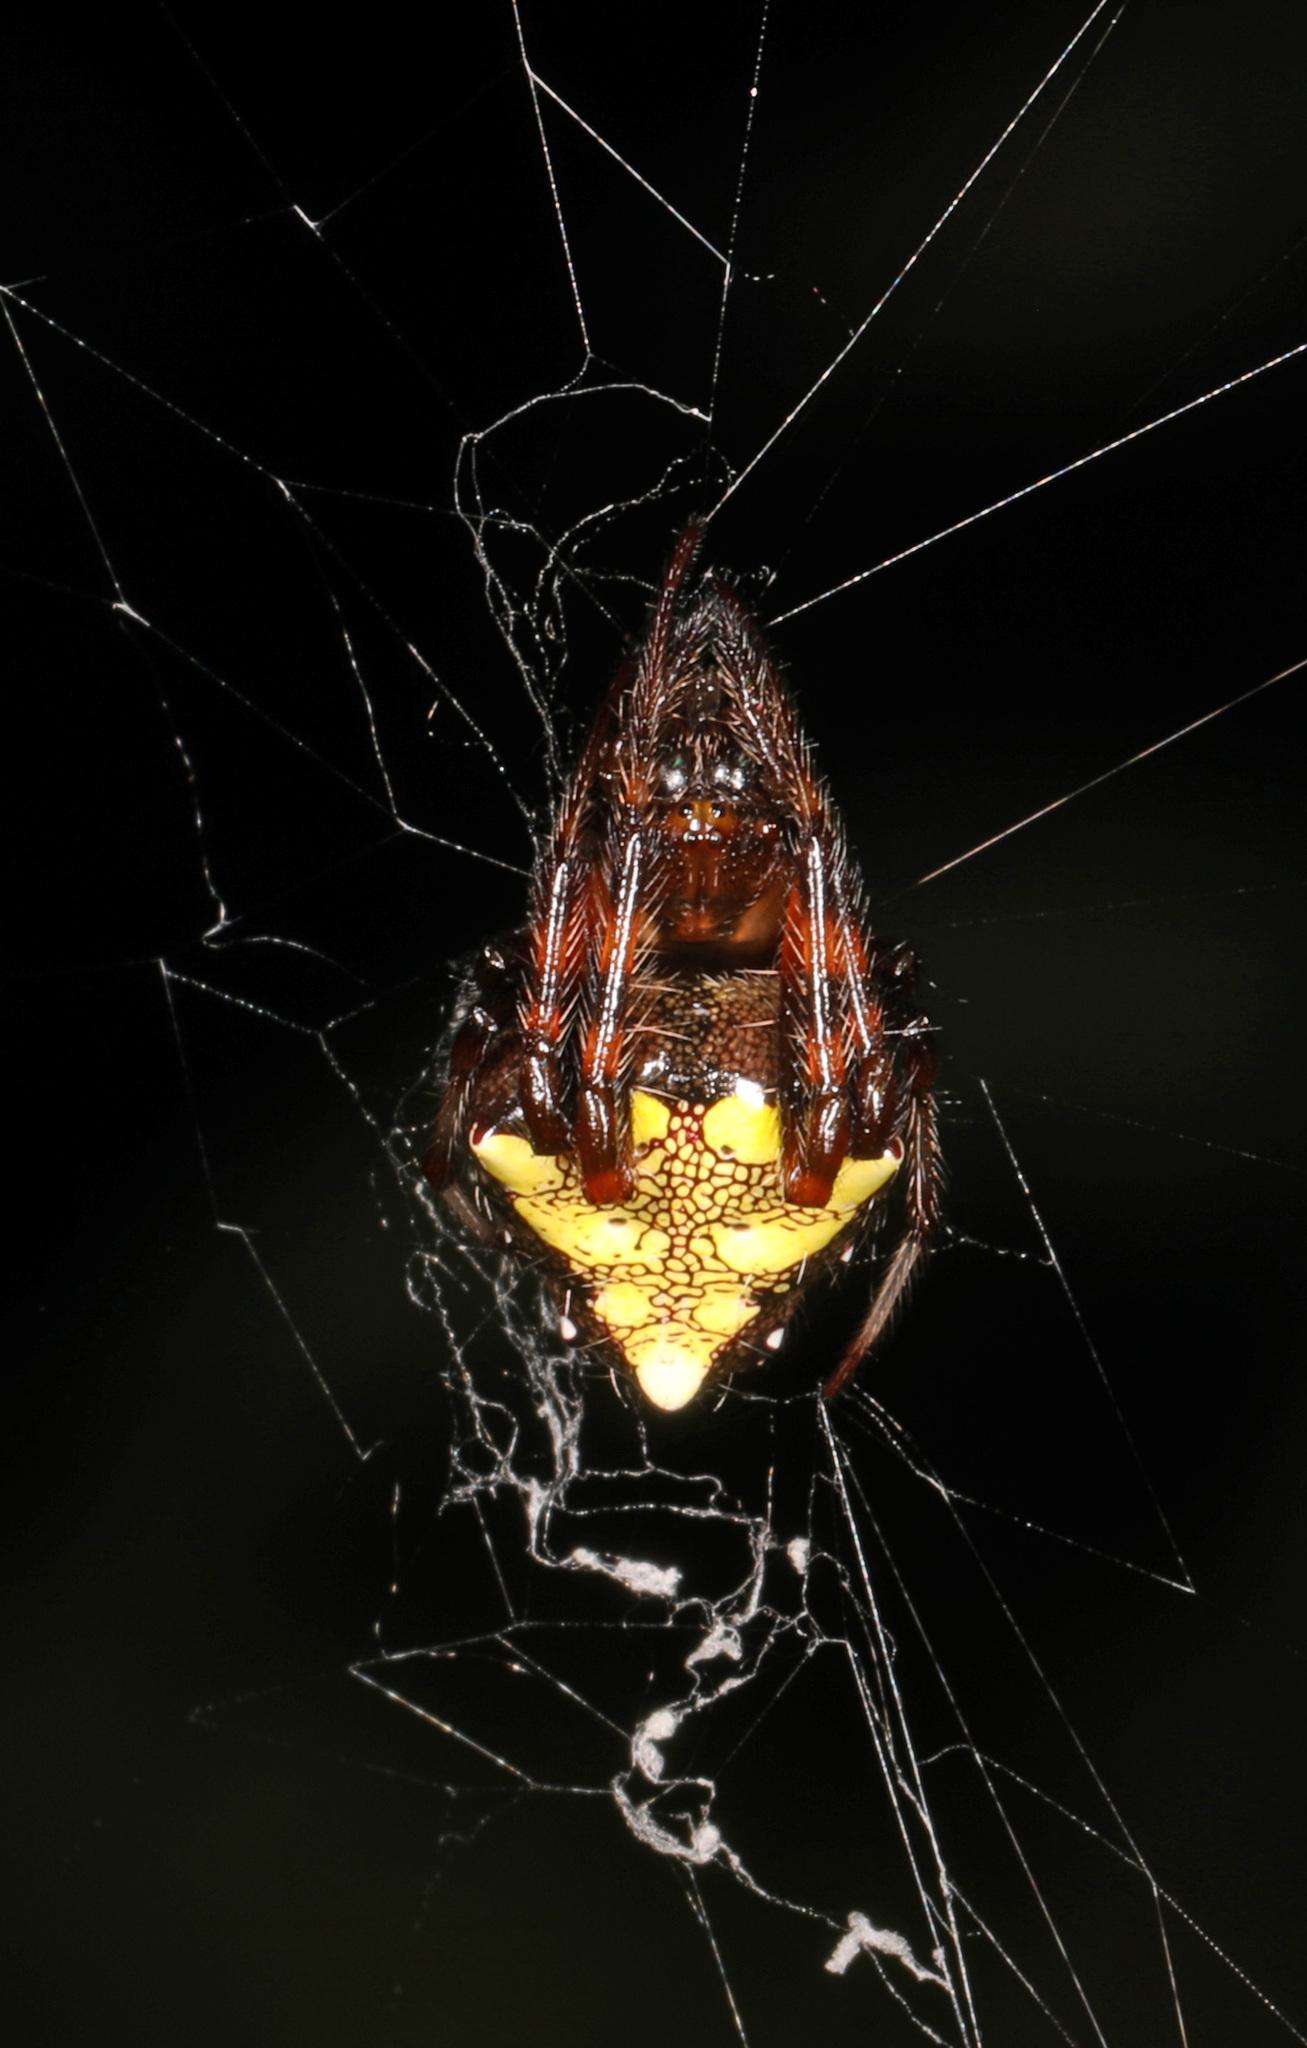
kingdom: Animalia
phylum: Arthropoda
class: Arachnida
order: Araneae
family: Araneidae
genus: Verrucosa
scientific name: Verrucosa arenata
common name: Orb weavers
